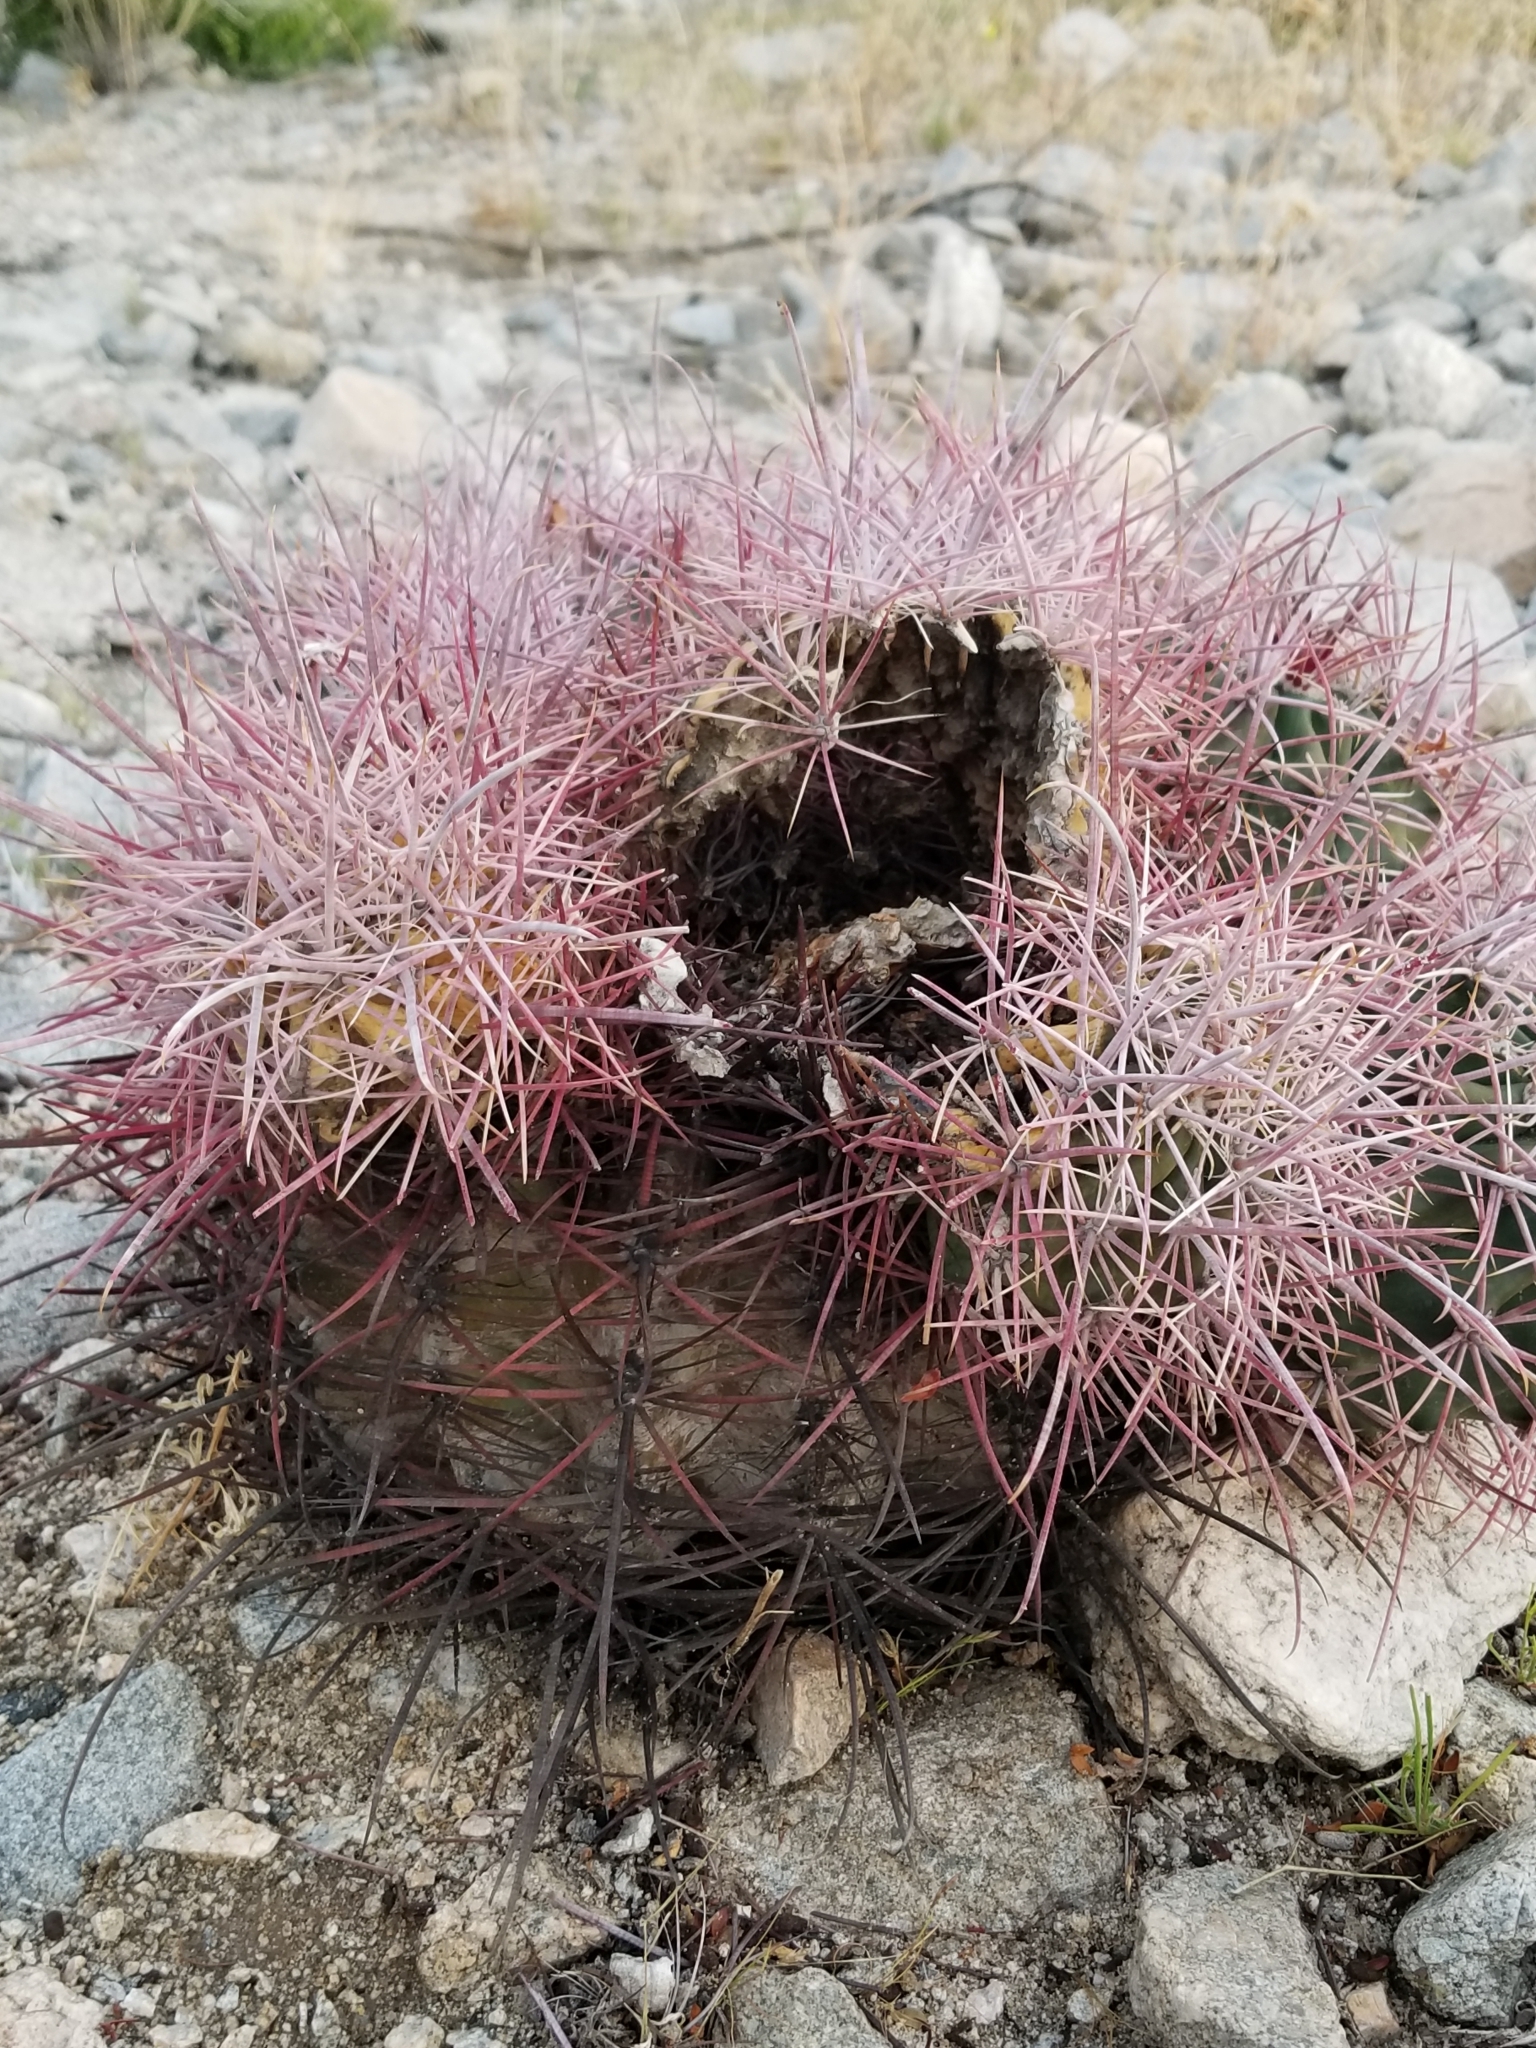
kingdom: Plantae
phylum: Tracheophyta
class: Magnoliopsida
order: Caryophyllales
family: Cactaceae
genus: Ferocactus
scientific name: Ferocactus cylindraceus
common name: California barrel cactus
